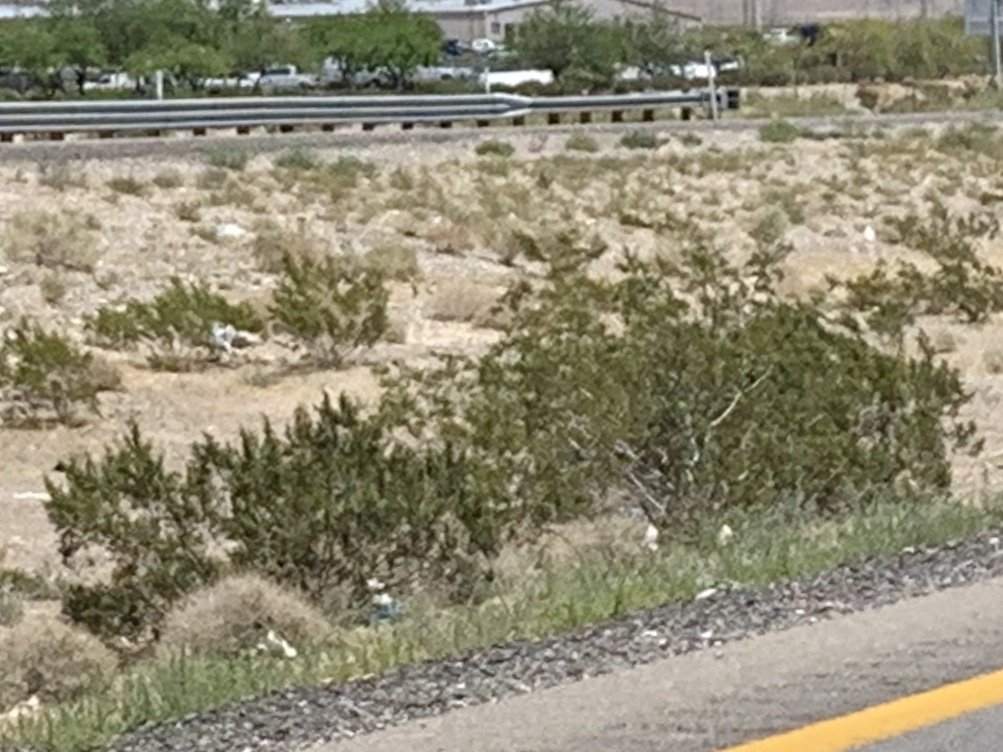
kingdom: Plantae
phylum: Tracheophyta
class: Magnoliopsida
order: Zygophyllales
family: Zygophyllaceae
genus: Larrea
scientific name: Larrea tridentata
